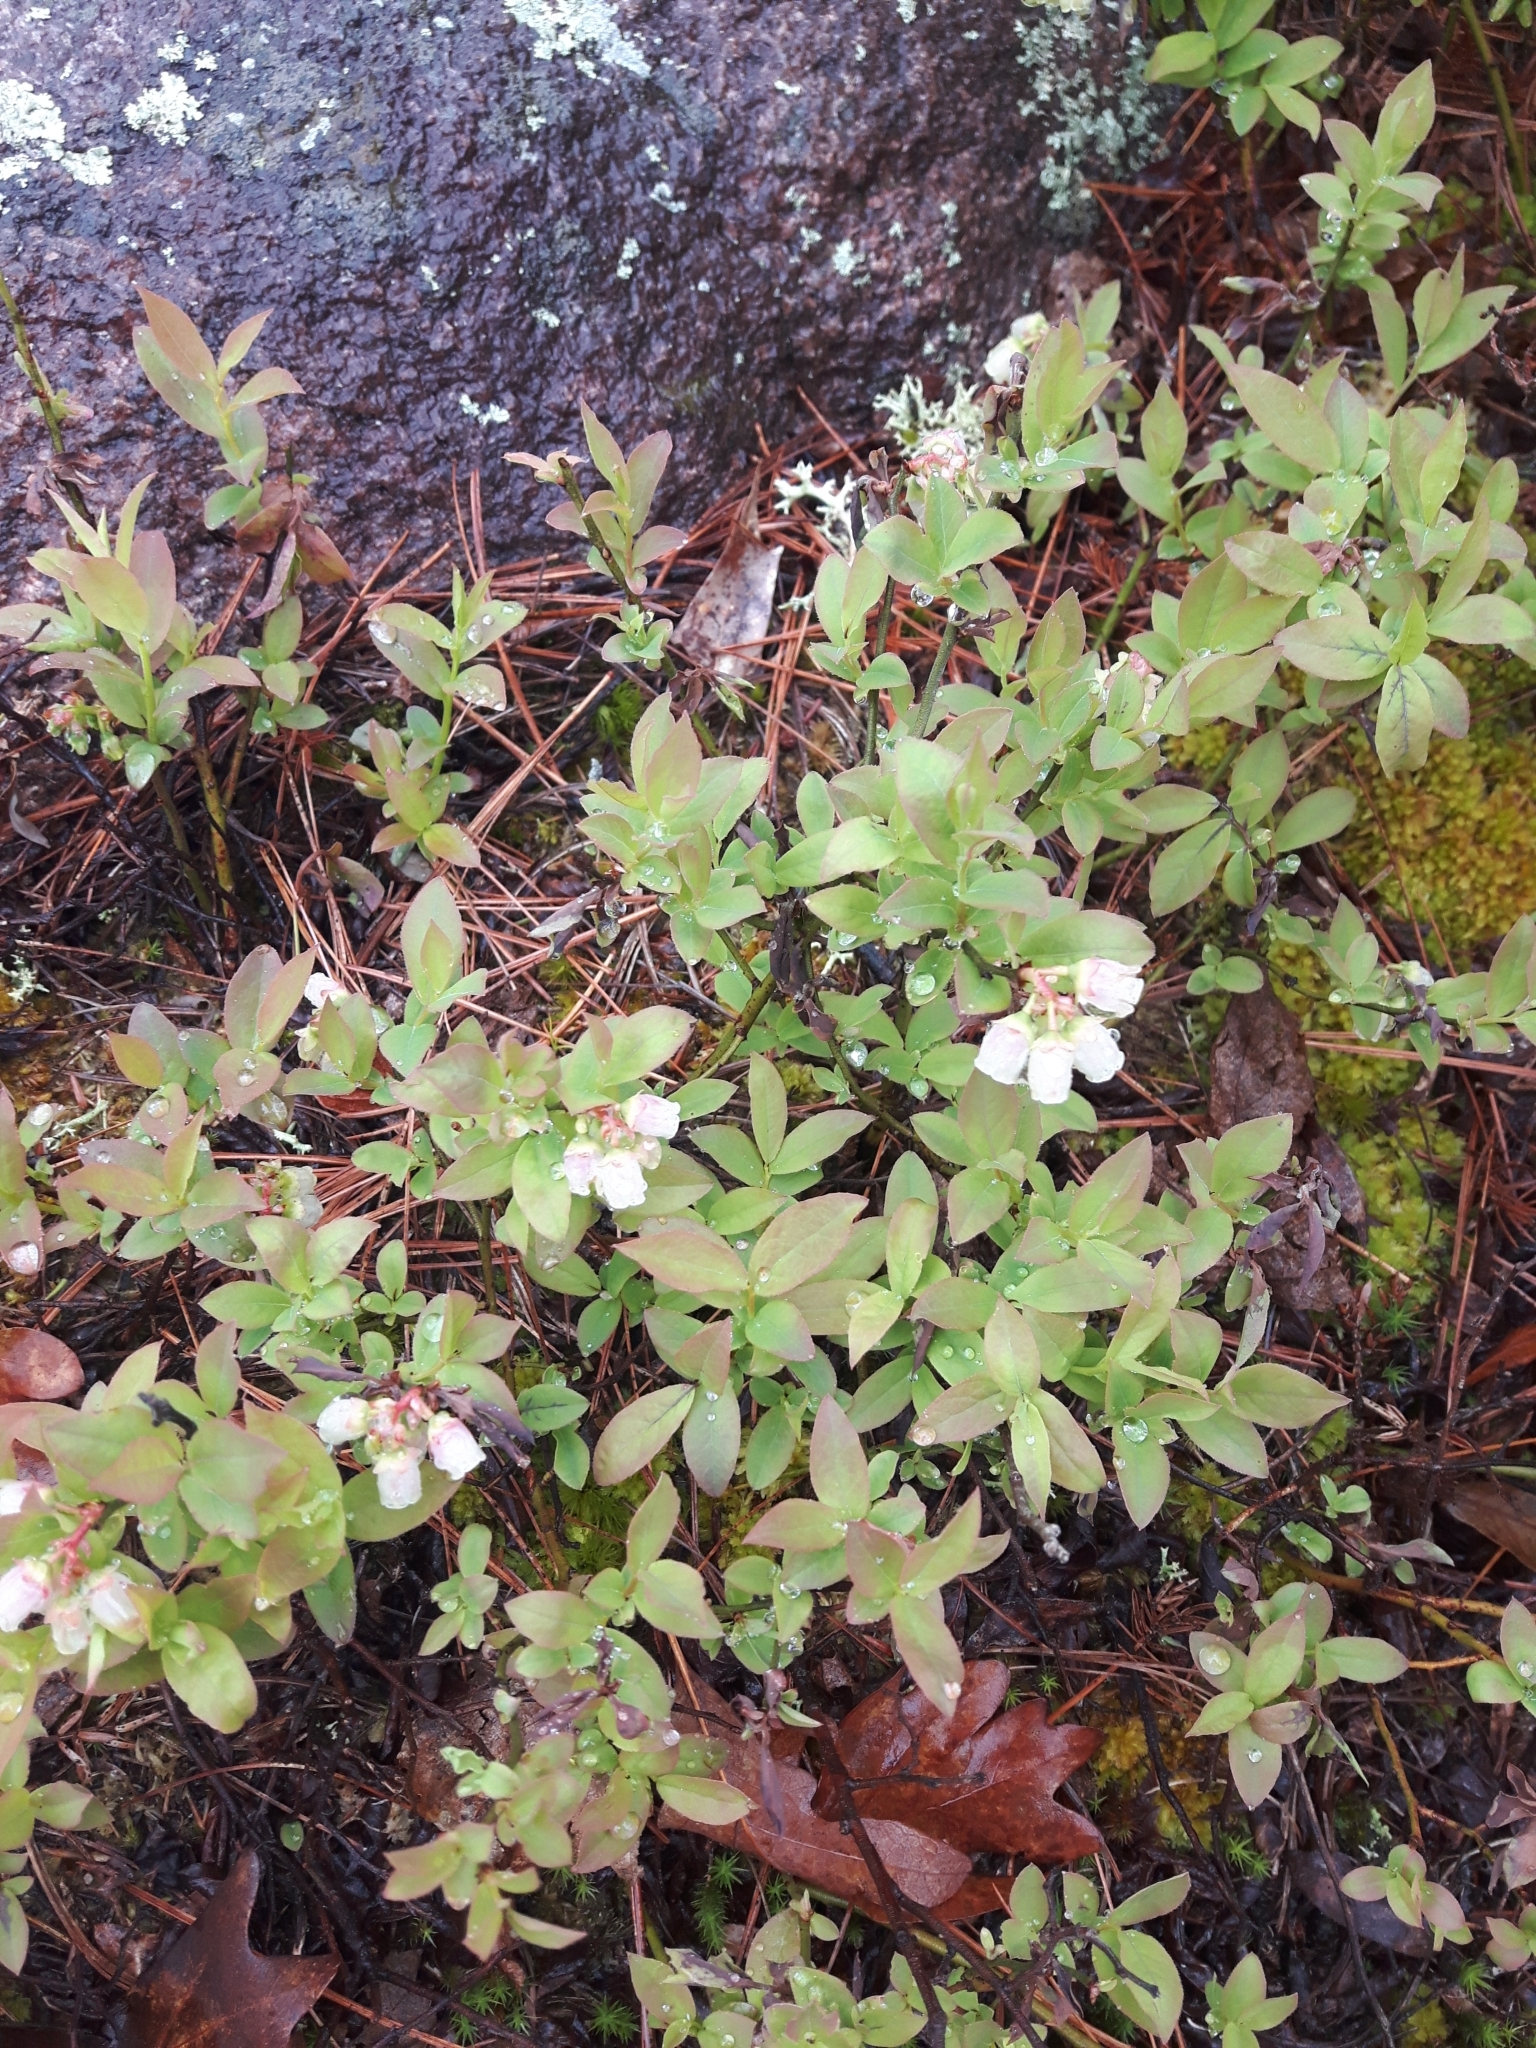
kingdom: Plantae
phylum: Tracheophyta
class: Magnoliopsida
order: Ericales
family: Ericaceae
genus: Vaccinium
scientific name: Vaccinium angustifolium
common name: Early lowbush blueberry
